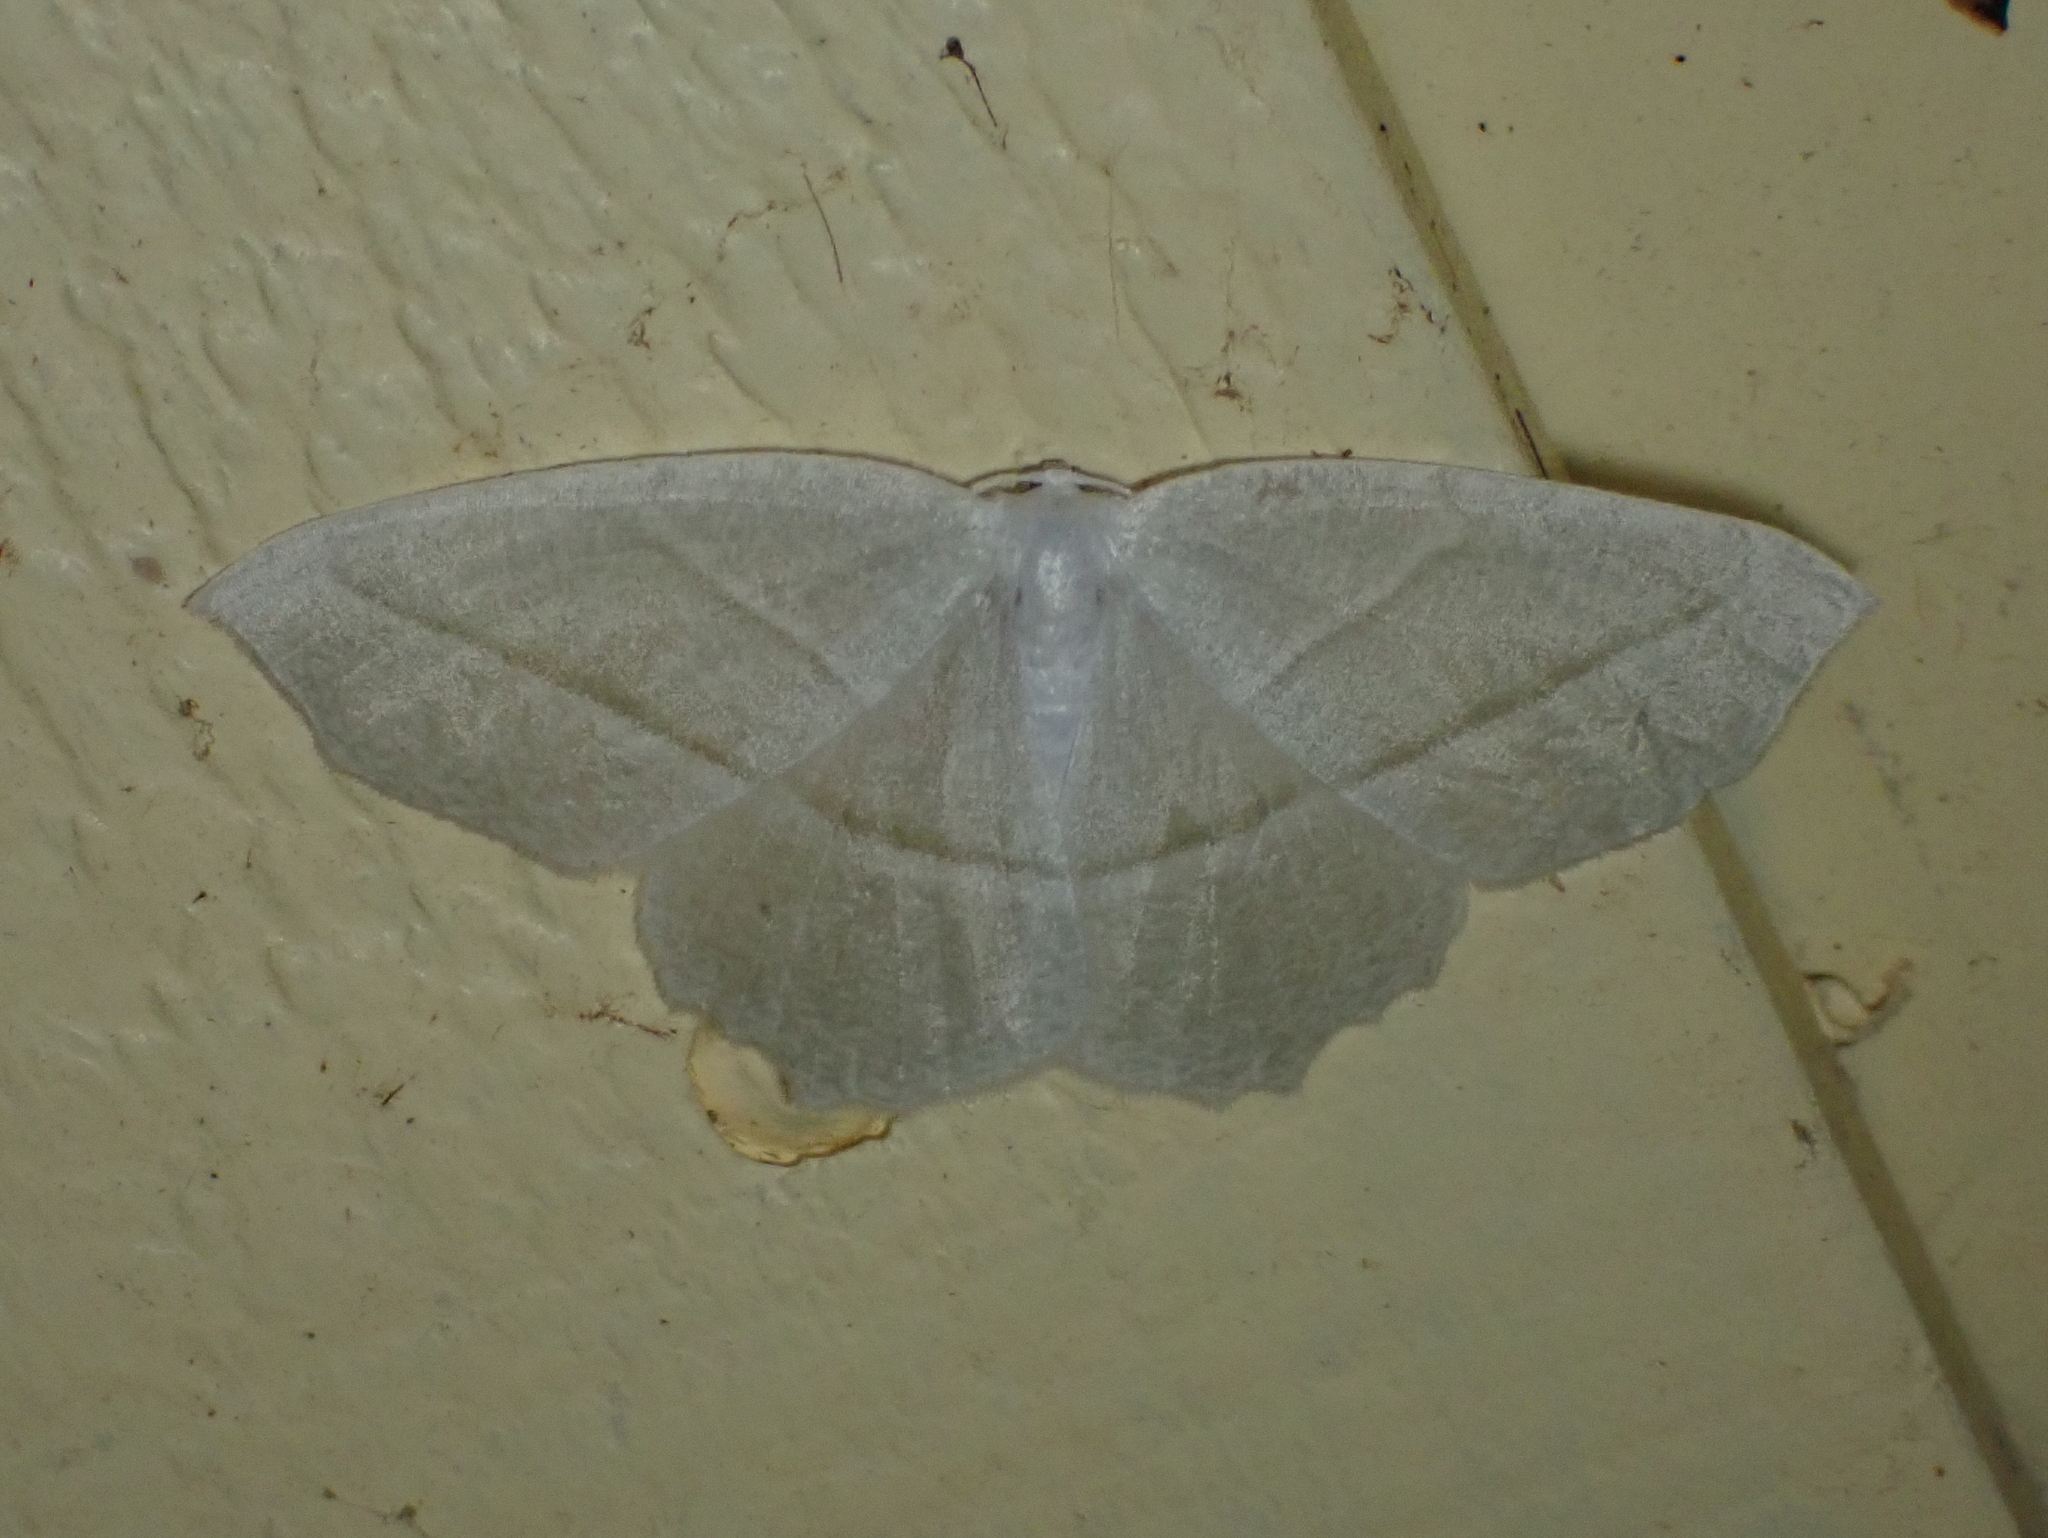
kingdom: Animalia
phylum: Arthropoda
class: Insecta
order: Lepidoptera
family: Geometridae
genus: Campaea
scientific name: Campaea perlata
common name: Fringed looper
